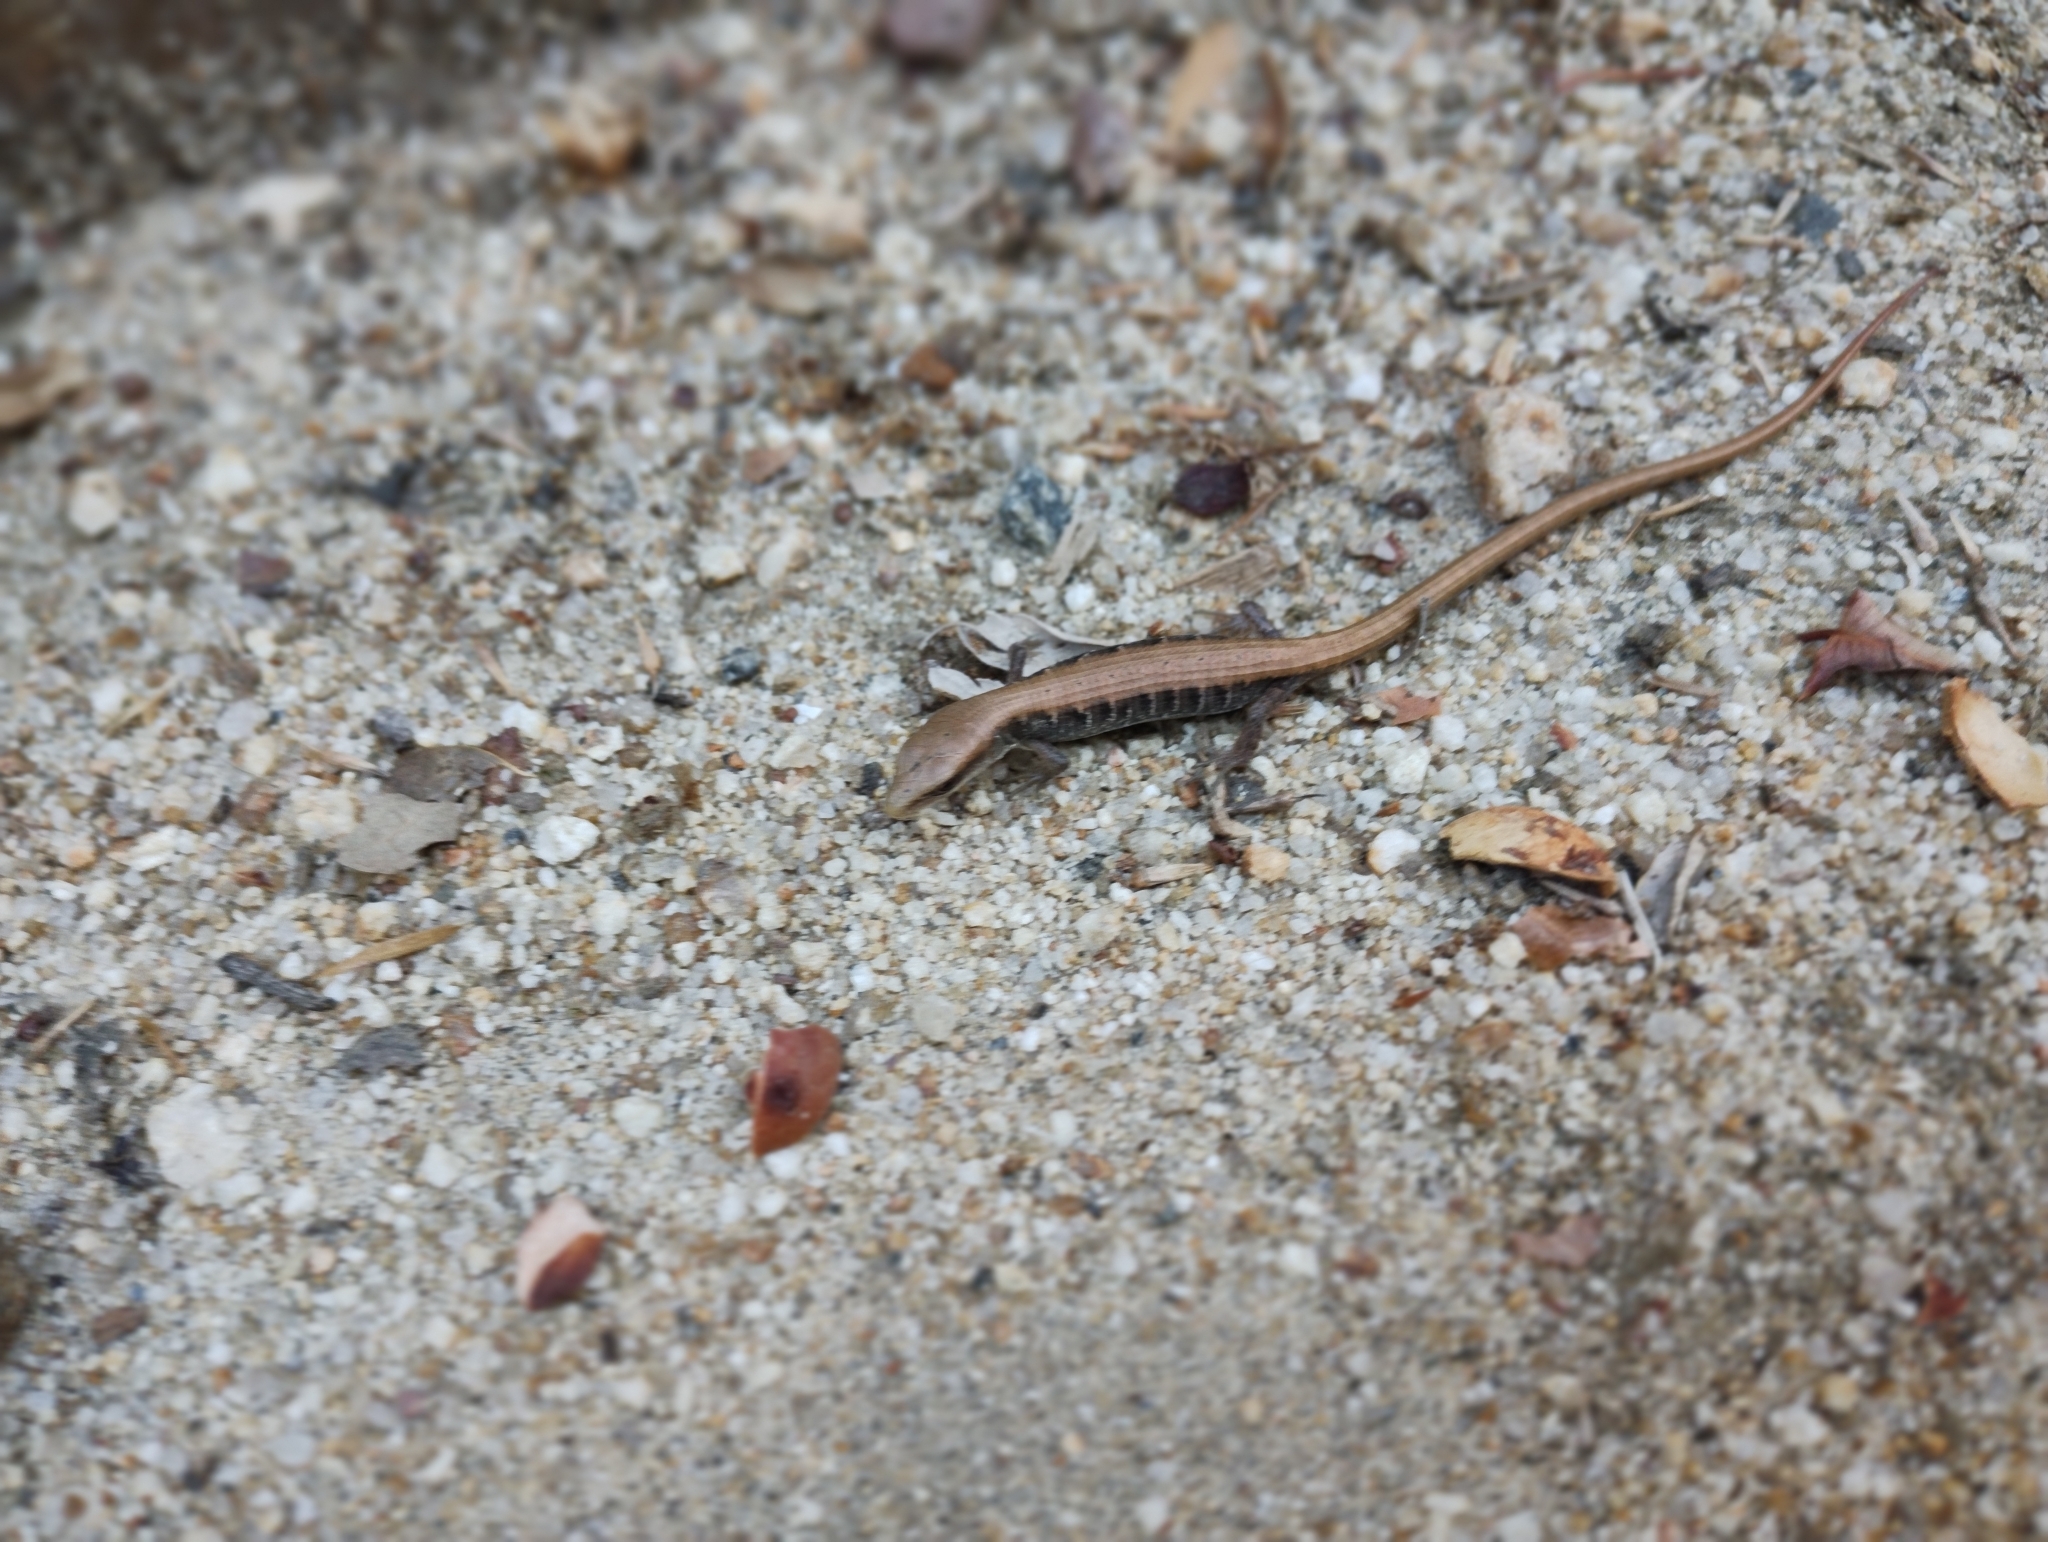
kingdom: Animalia
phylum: Chordata
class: Squamata
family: Anguidae
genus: Elgaria
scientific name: Elgaria multicarinata
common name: Southern alligator lizard
